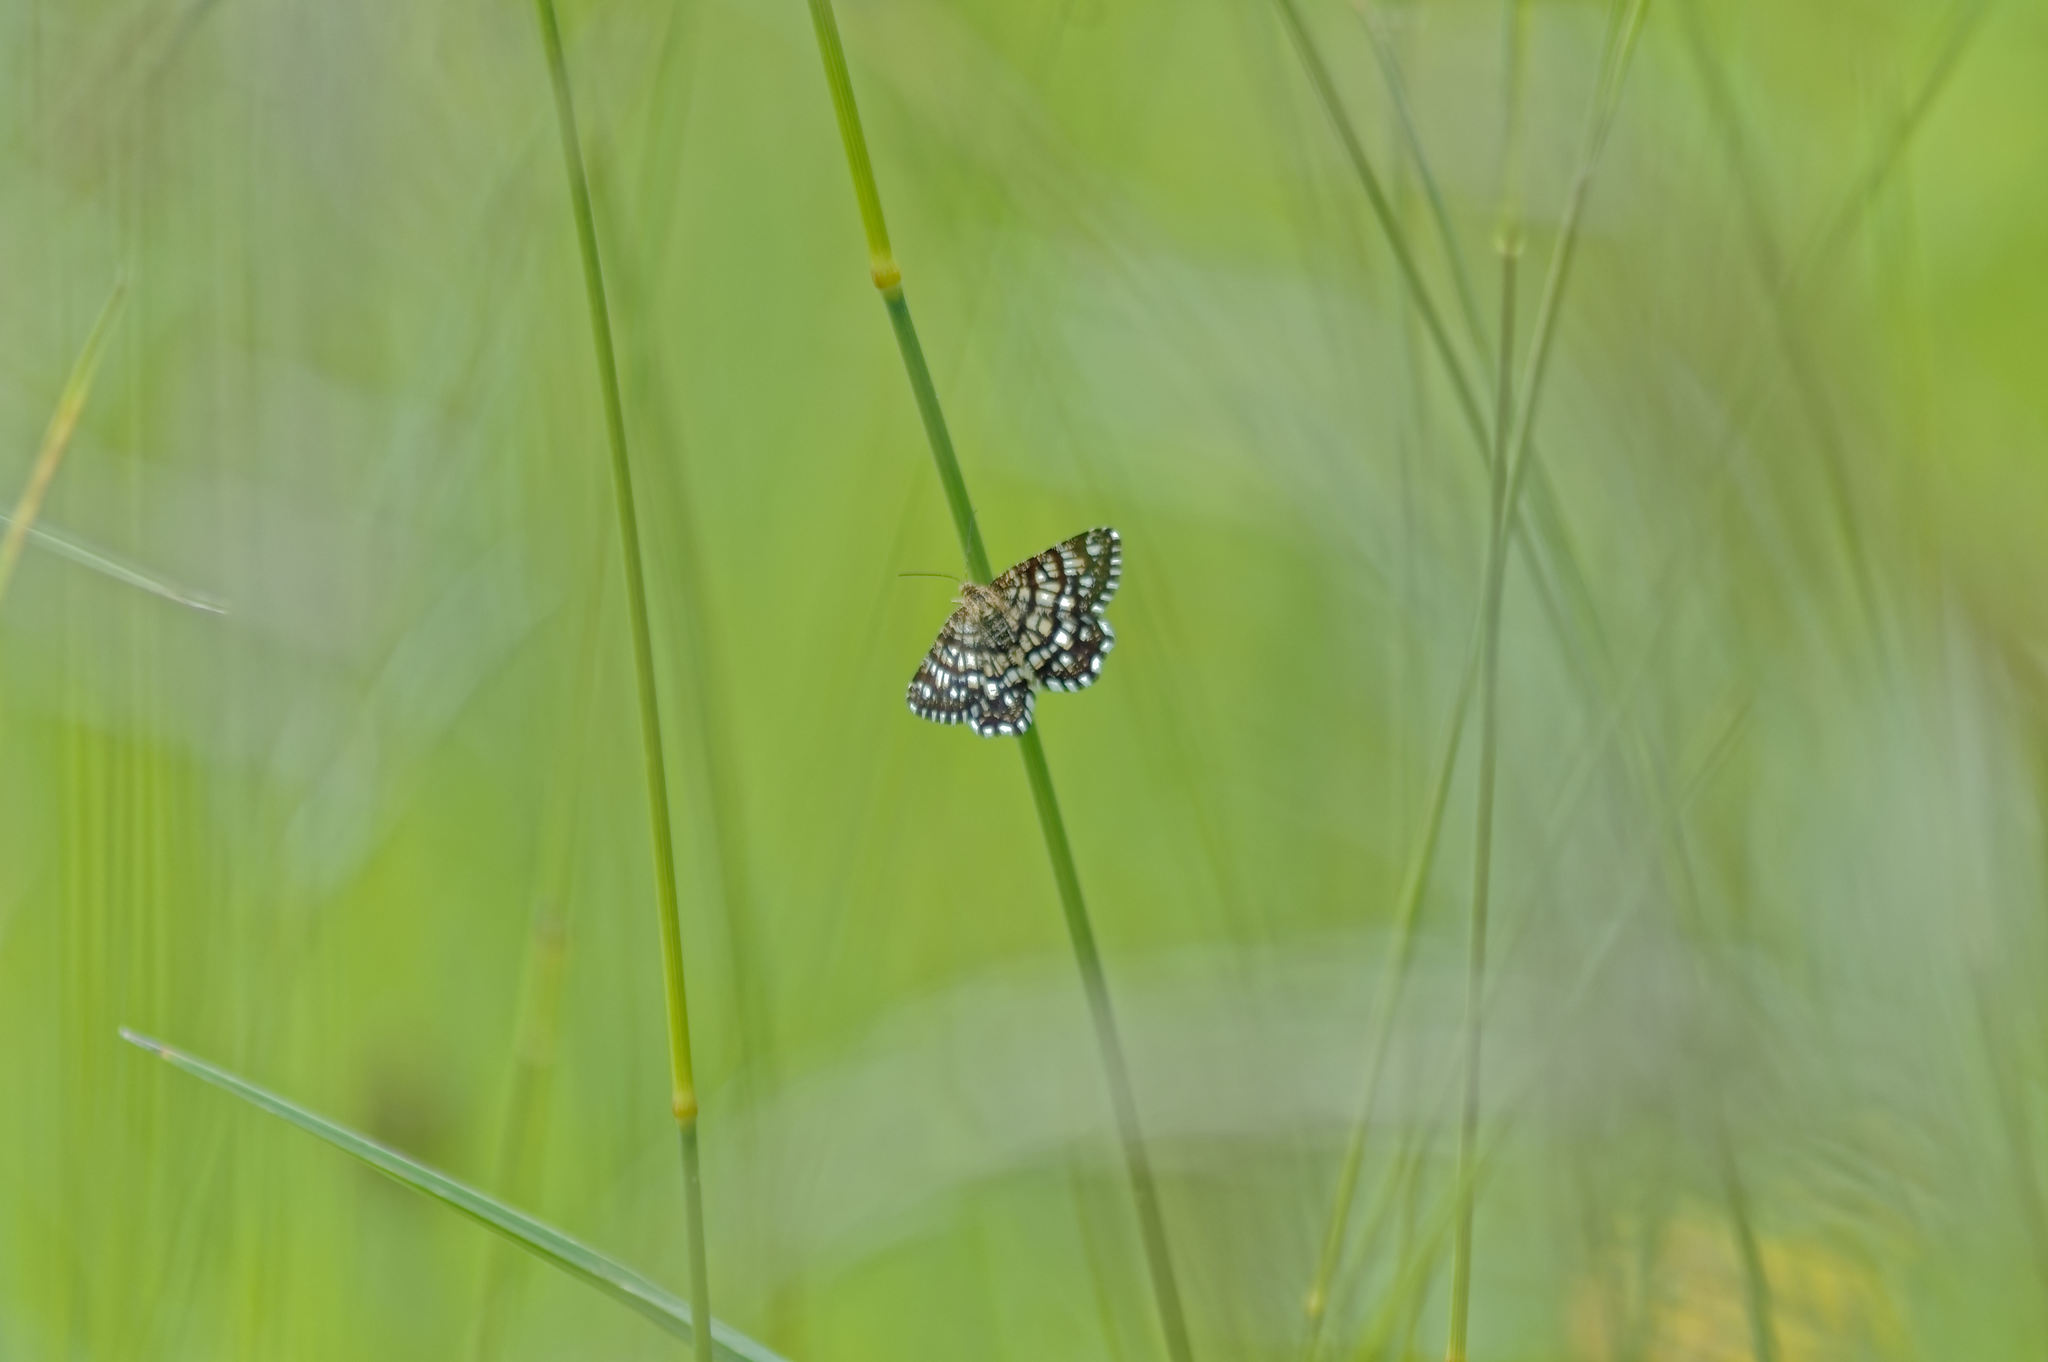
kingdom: Animalia
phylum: Arthropoda
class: Insecta
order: Lepidoptera
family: Geometridae
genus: Chiasmia
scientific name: Chiasmia clathrata
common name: Latticed heath
